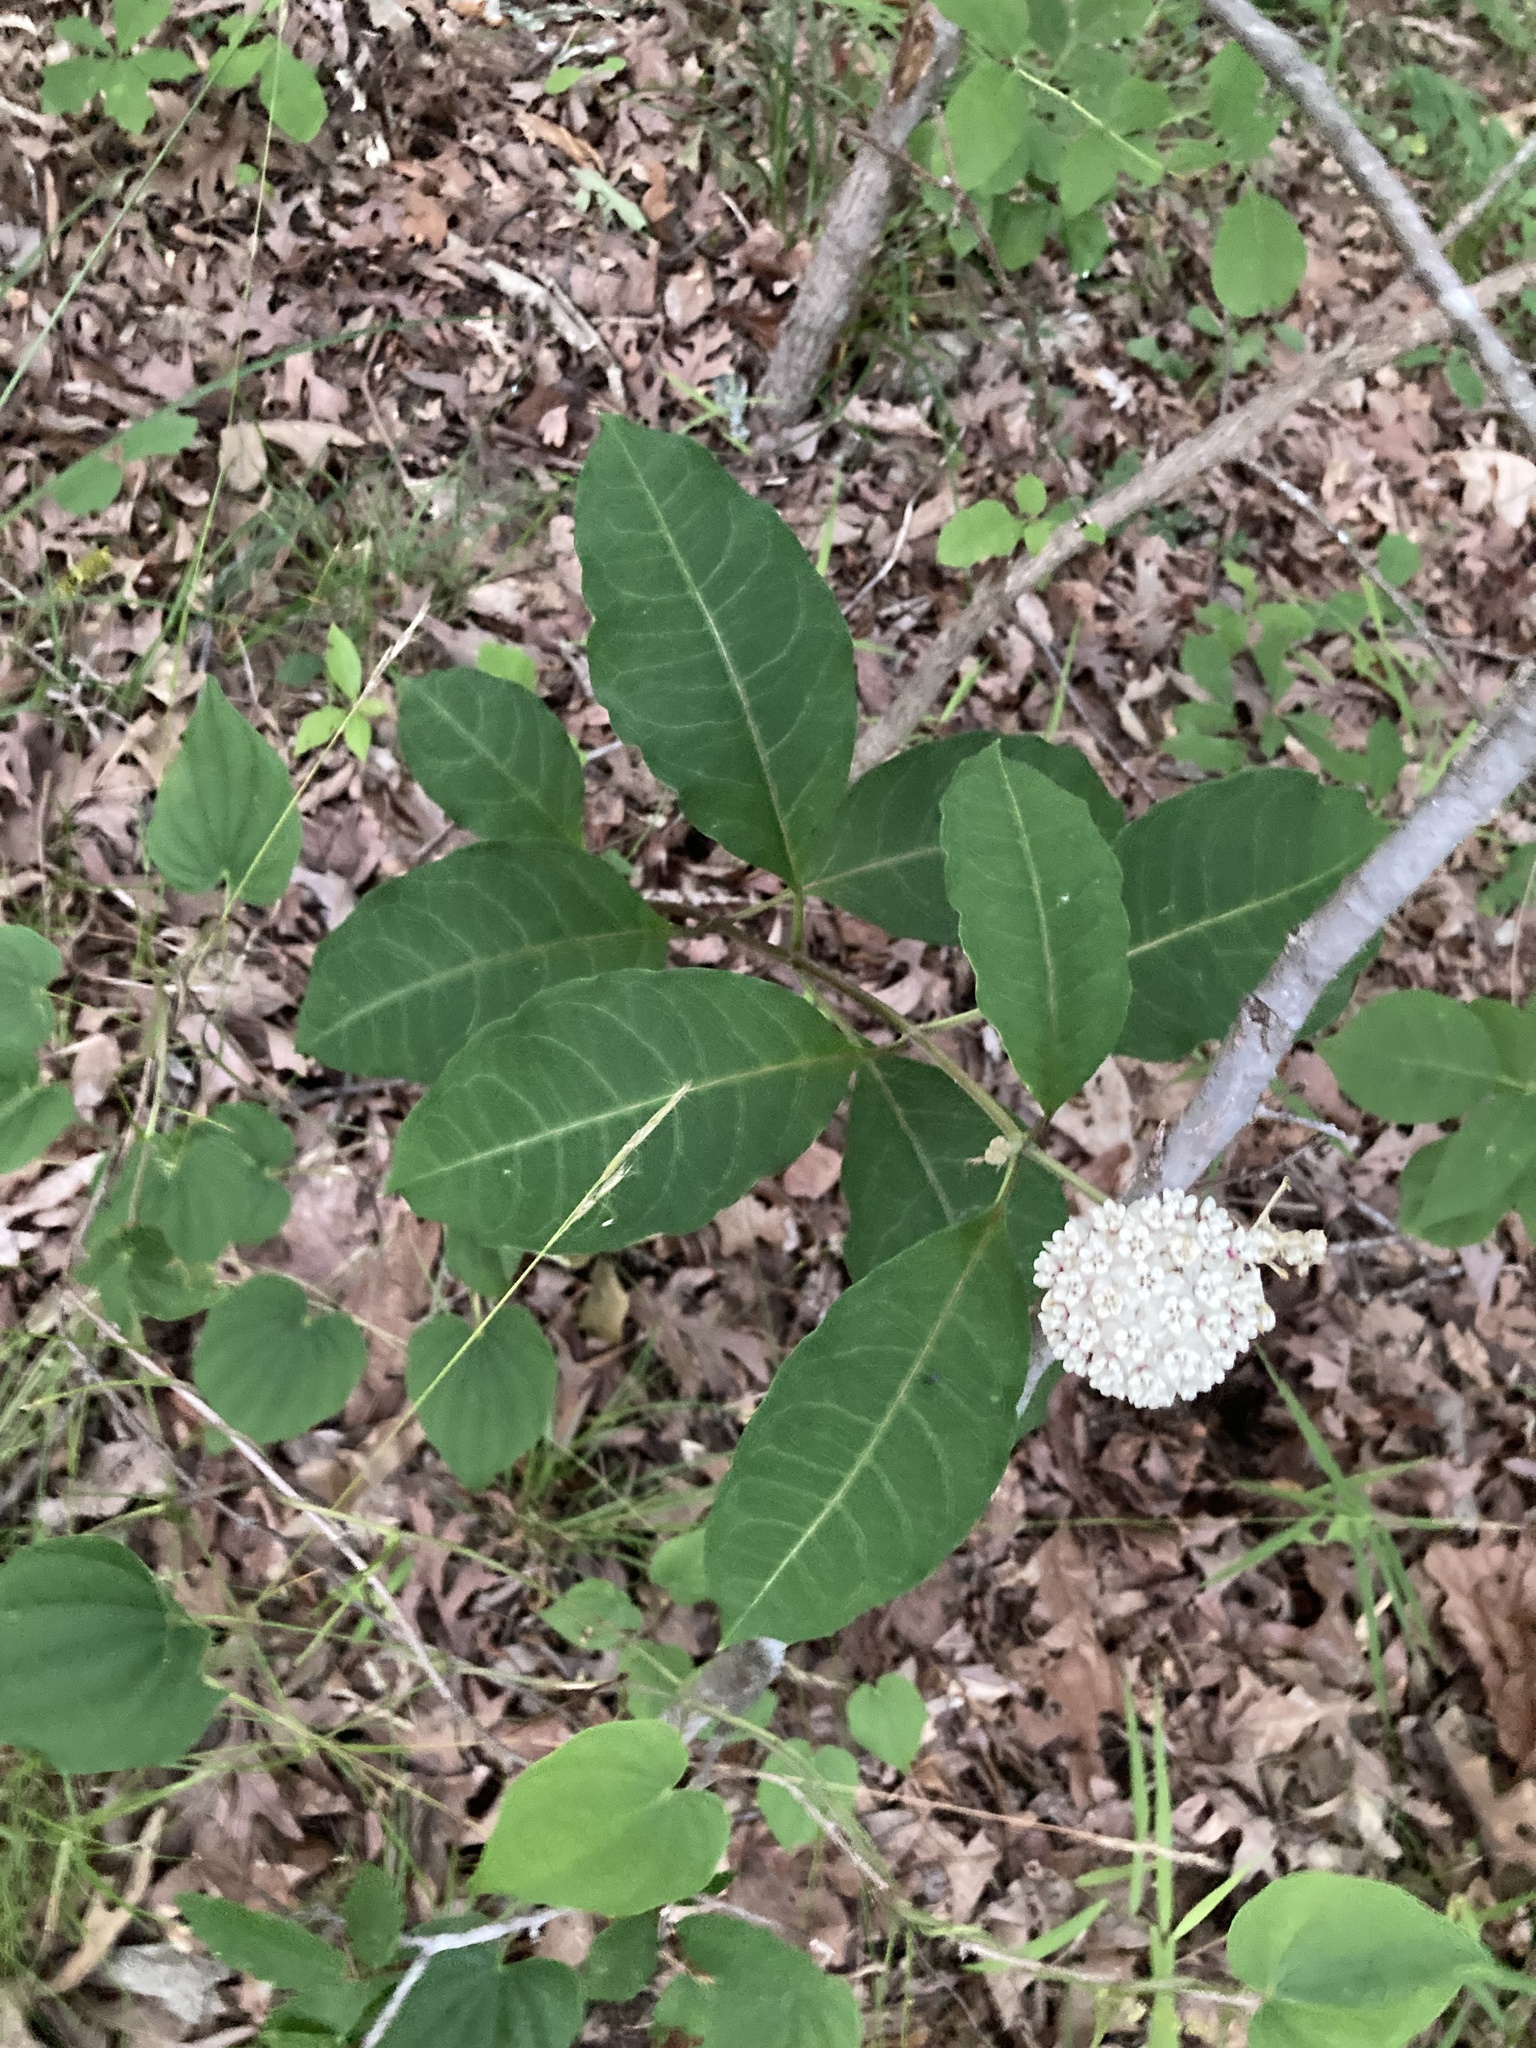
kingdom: Plantae
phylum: Tracheophyta
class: Magnoliopsida
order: Gentianales
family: Apocynaceae
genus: Asclepias
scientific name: Asclepias variegata
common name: Variegated milkweed
